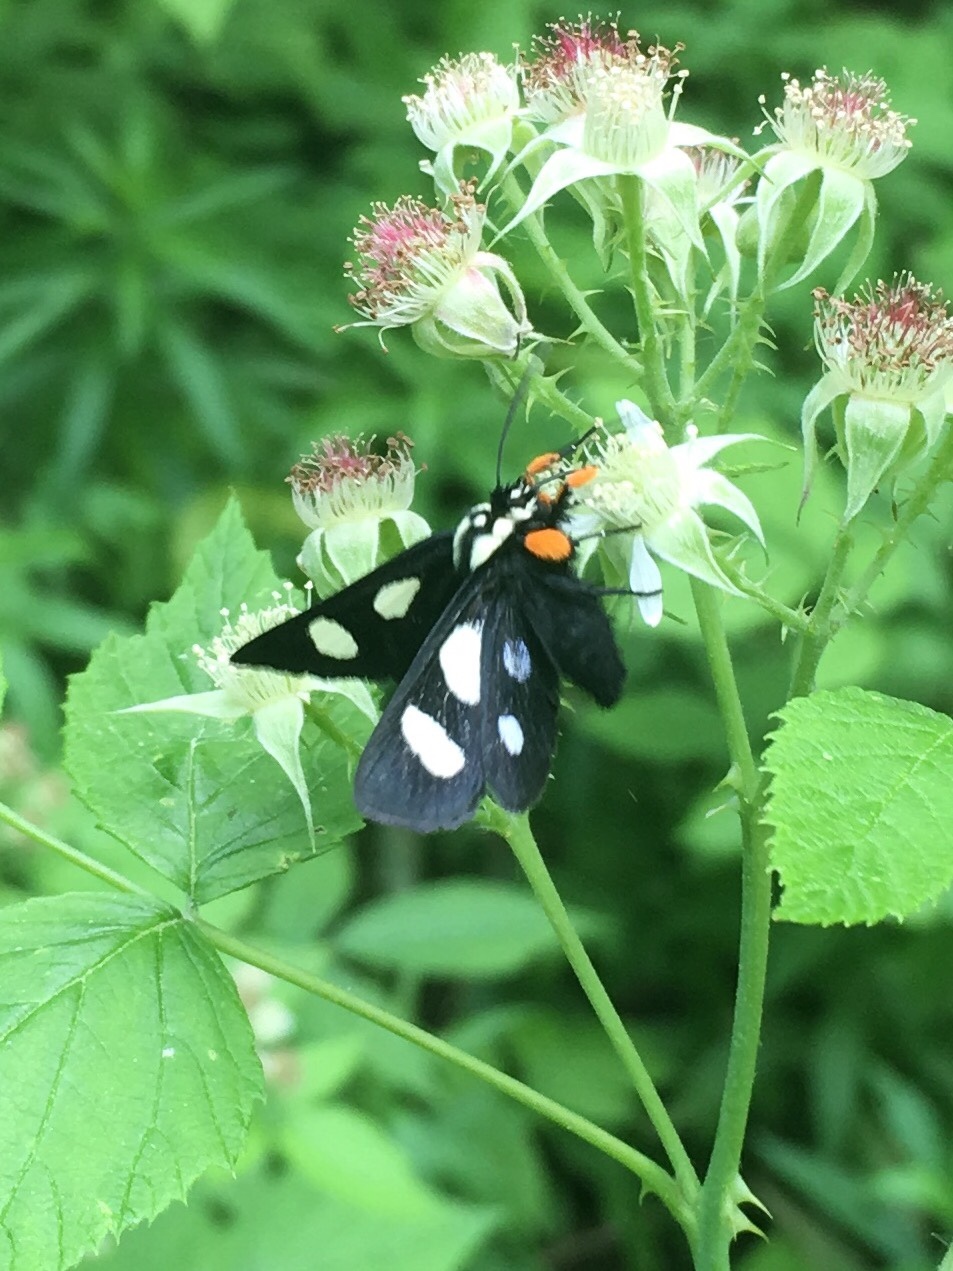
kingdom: Animalia
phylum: Arthropoda
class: Insecta
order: Lepidoptera
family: Noctuidae
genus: Alypia
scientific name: Alypia octomaculata
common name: Eight-spotted forester
